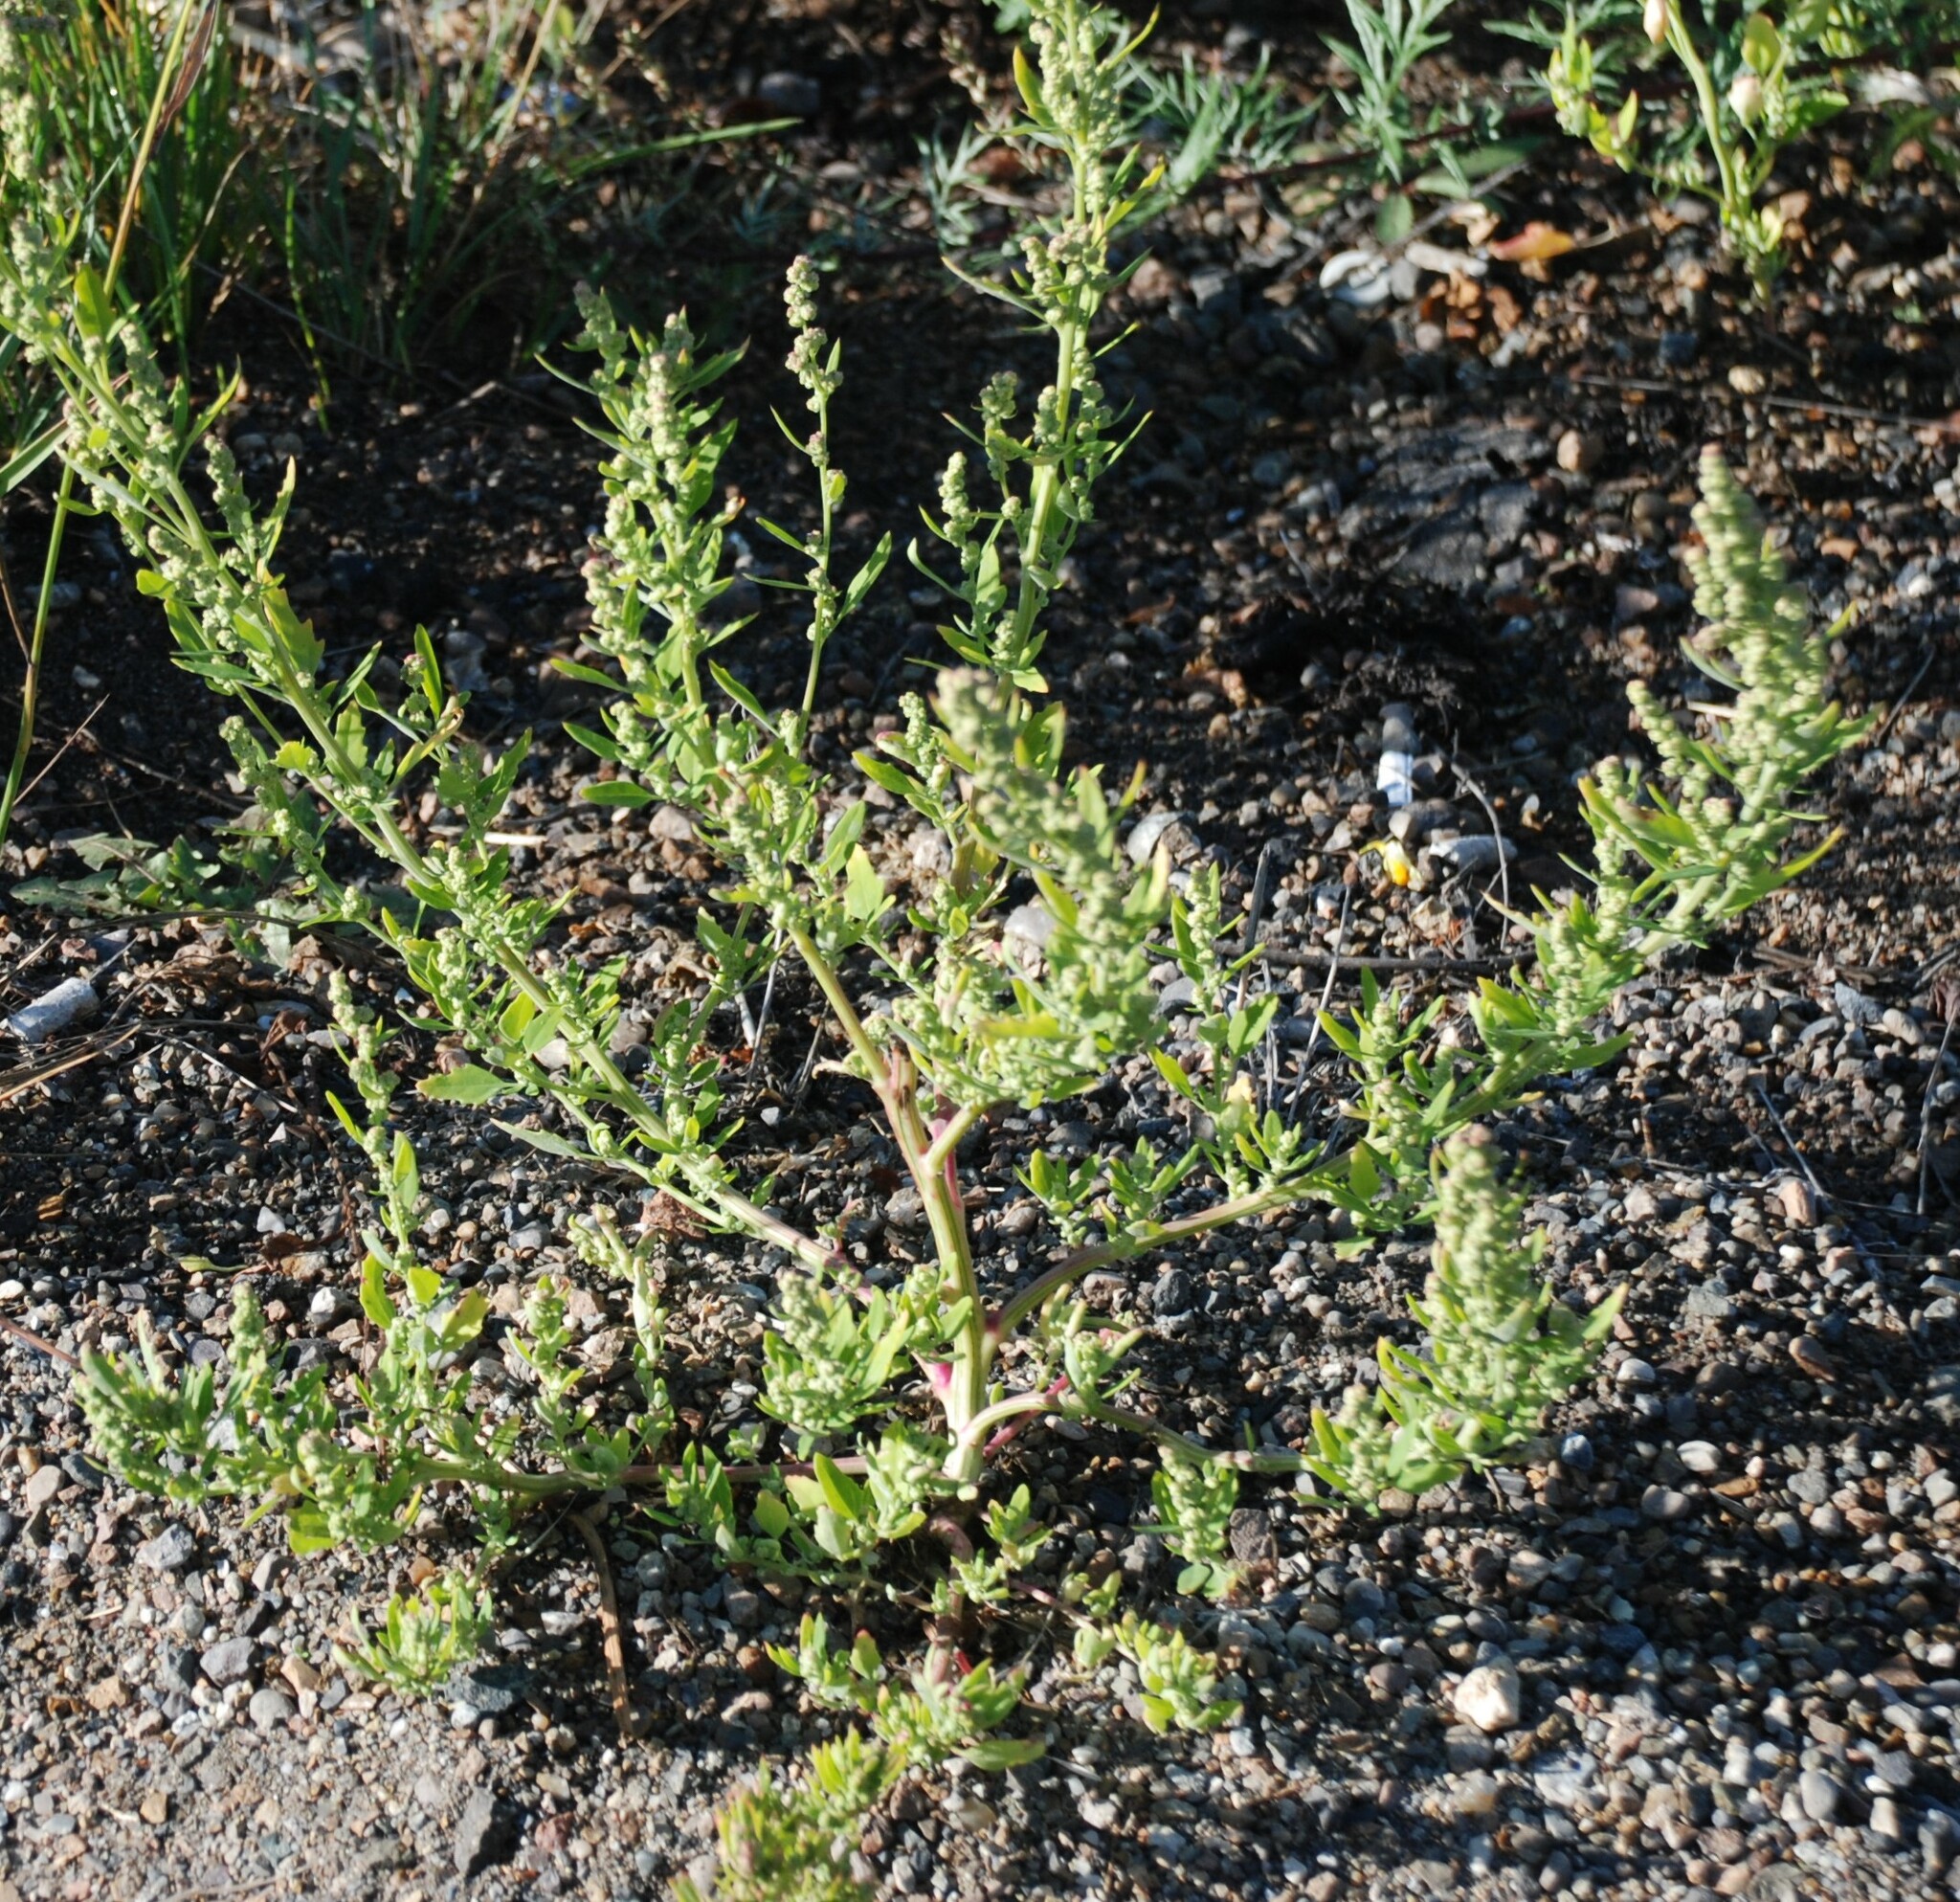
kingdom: Plantae
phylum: Tracheophyta
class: Magnoliopsida
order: Caryophyllales
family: Amaranthaceae
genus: Chenopodium
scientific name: Chenopodium album
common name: Fat-hen
